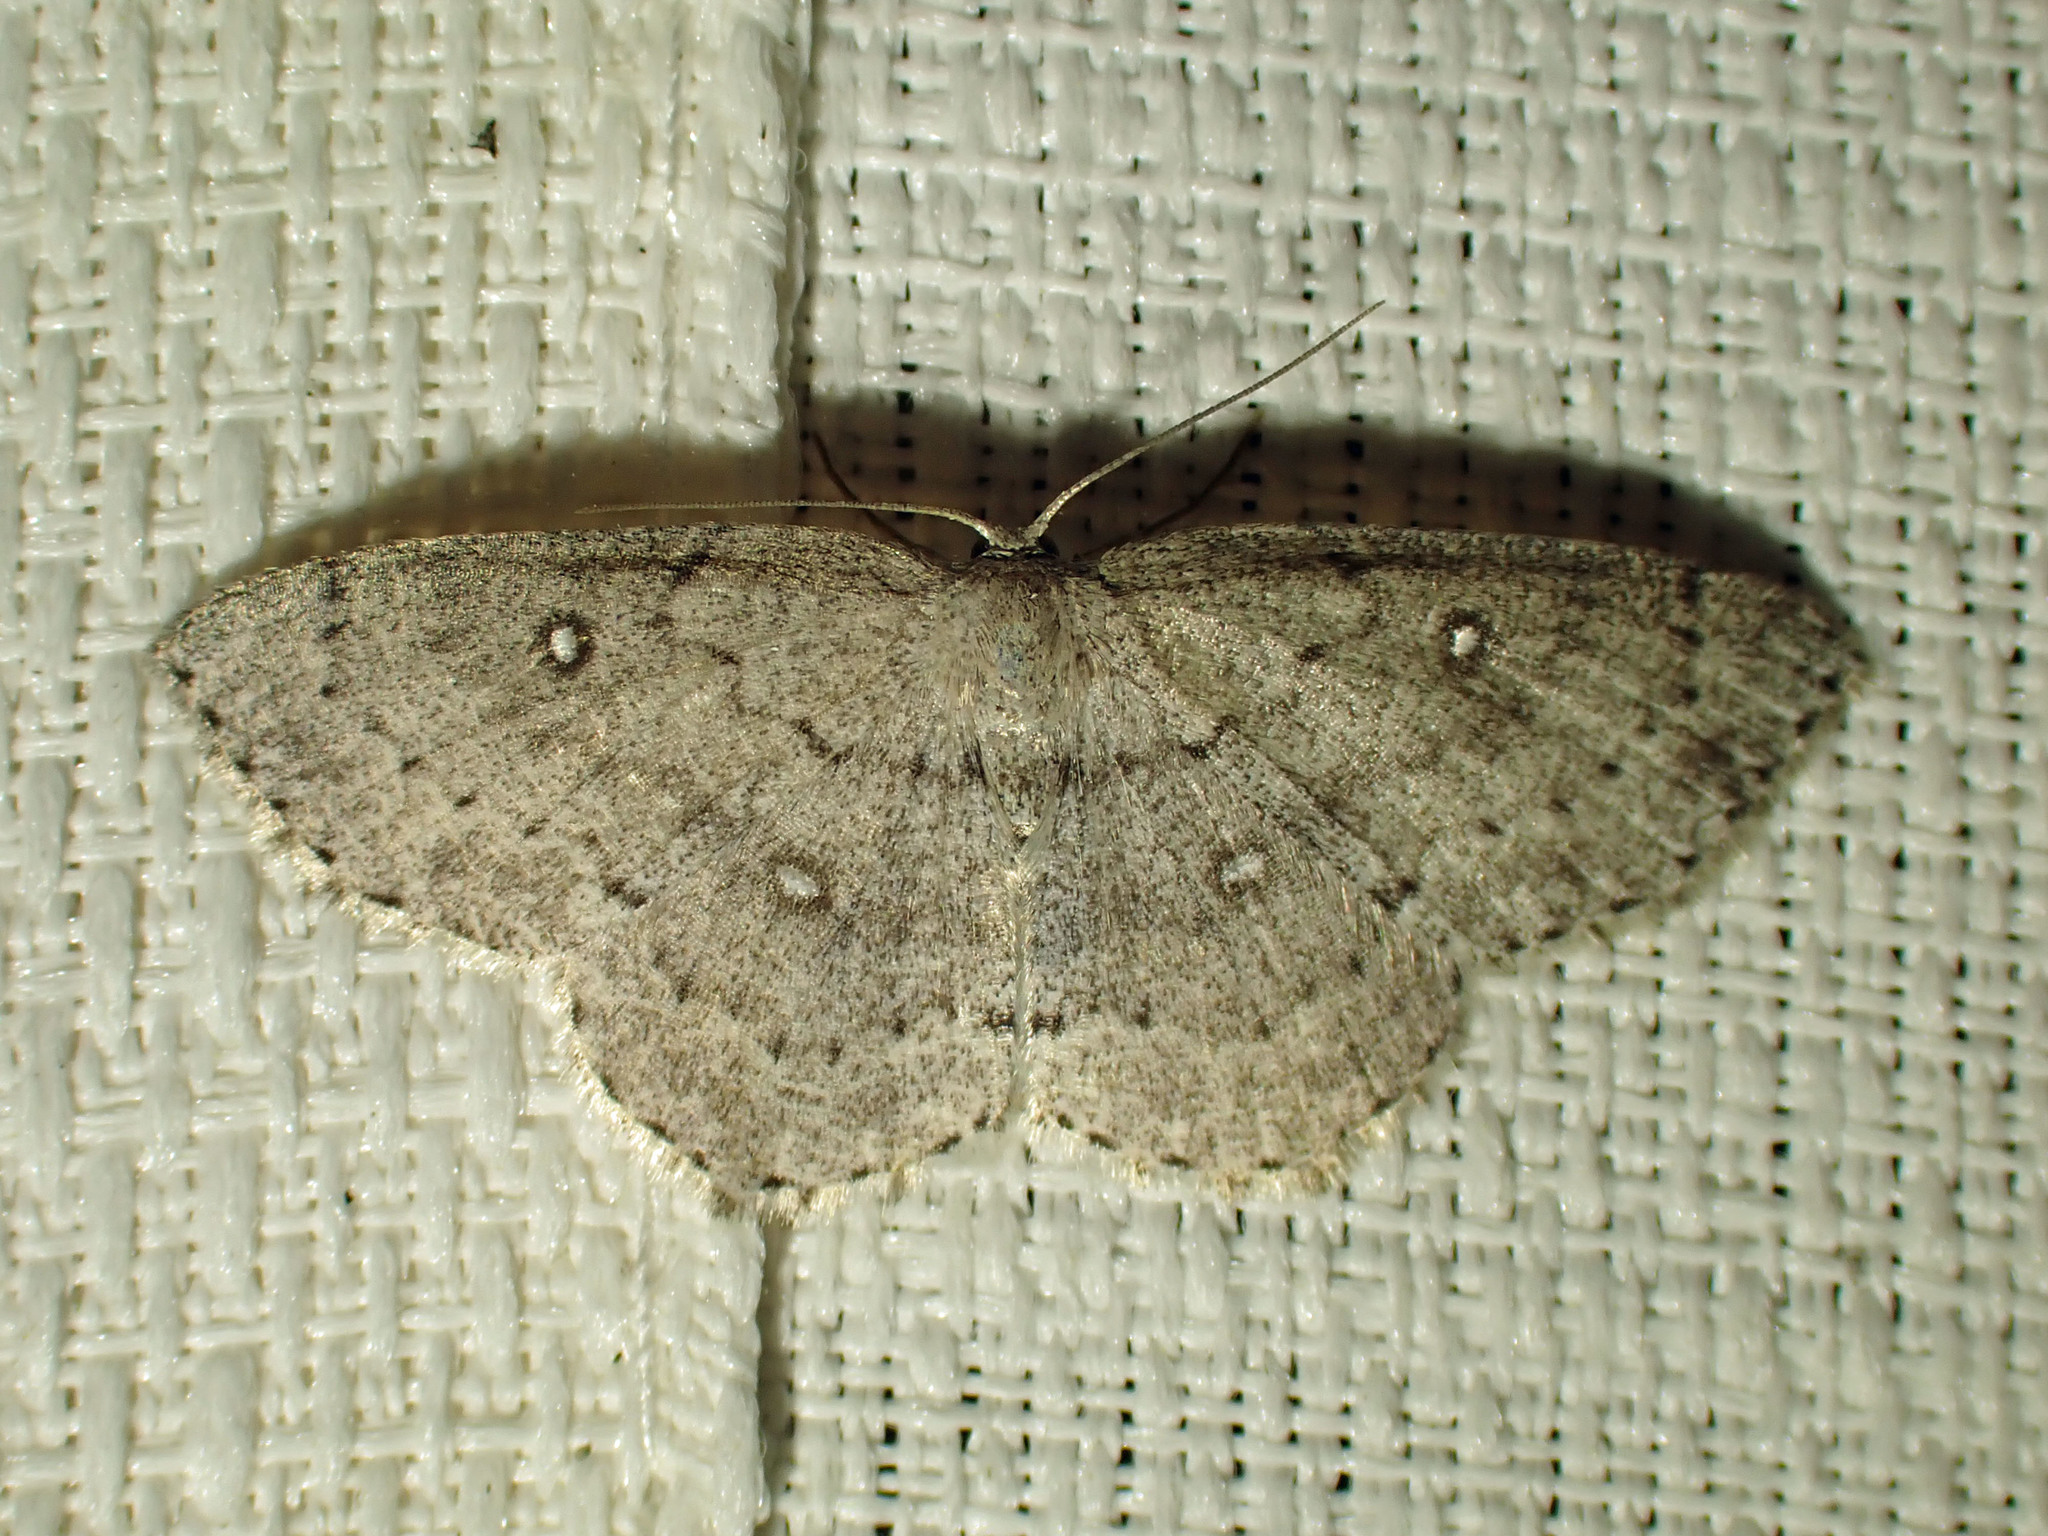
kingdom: Animalia
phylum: Arthropoda
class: Insecta
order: Lepidoptera
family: Geometridae
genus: Cyclophora
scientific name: Cyclophora pendulinaria
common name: Sweet fern geometer
